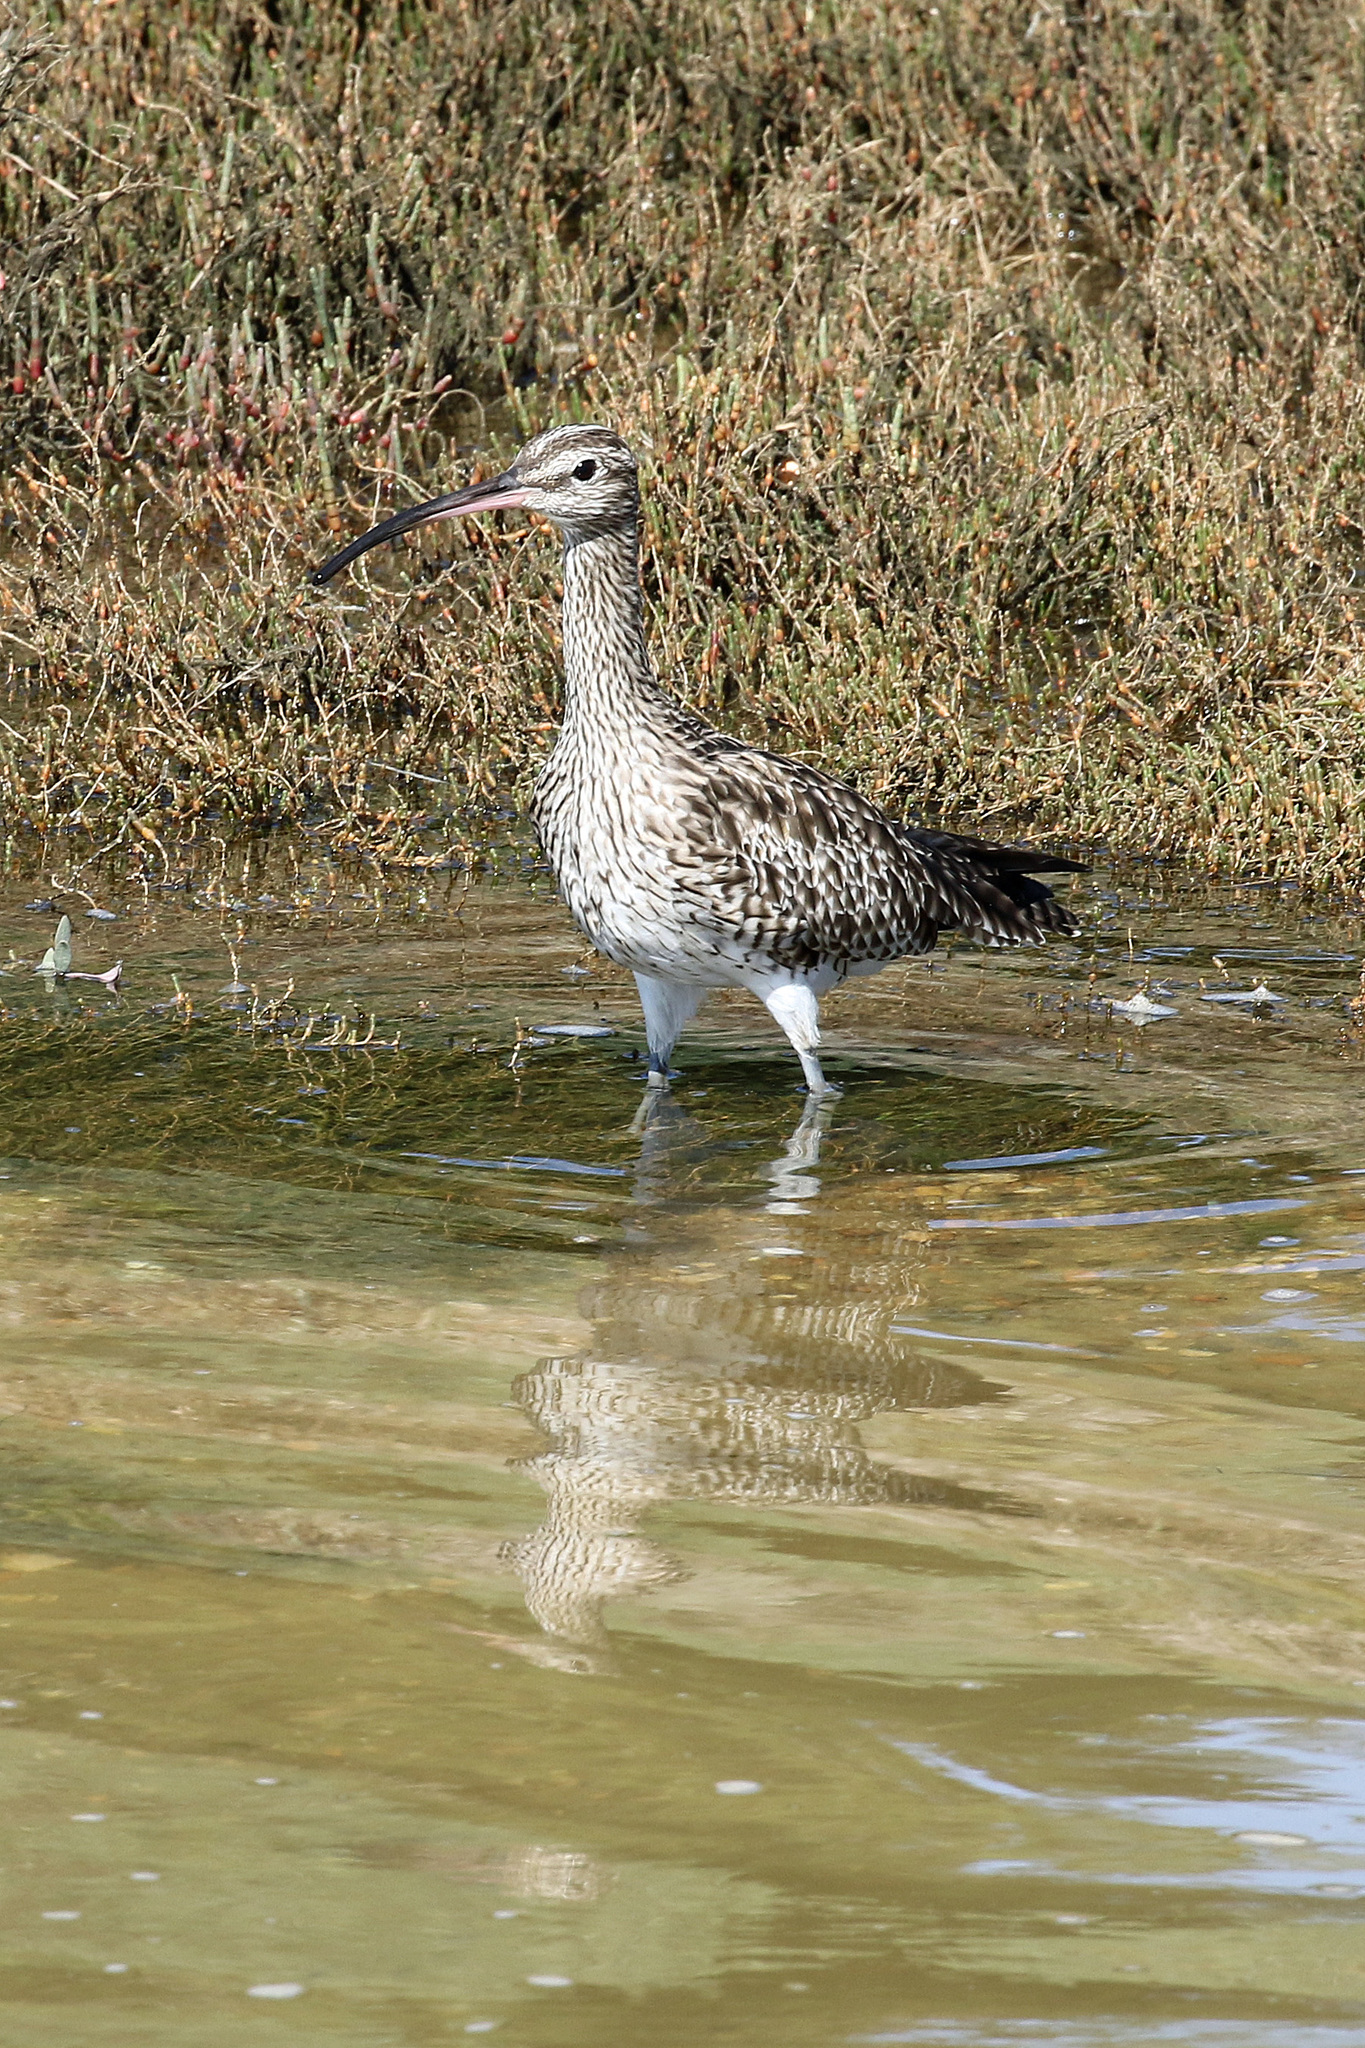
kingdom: Animalia
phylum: Chordata
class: Aves
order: Charadriiformes
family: Scolopacidae
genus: Numenius
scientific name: Numenius phaeopus
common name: Whimbrel
